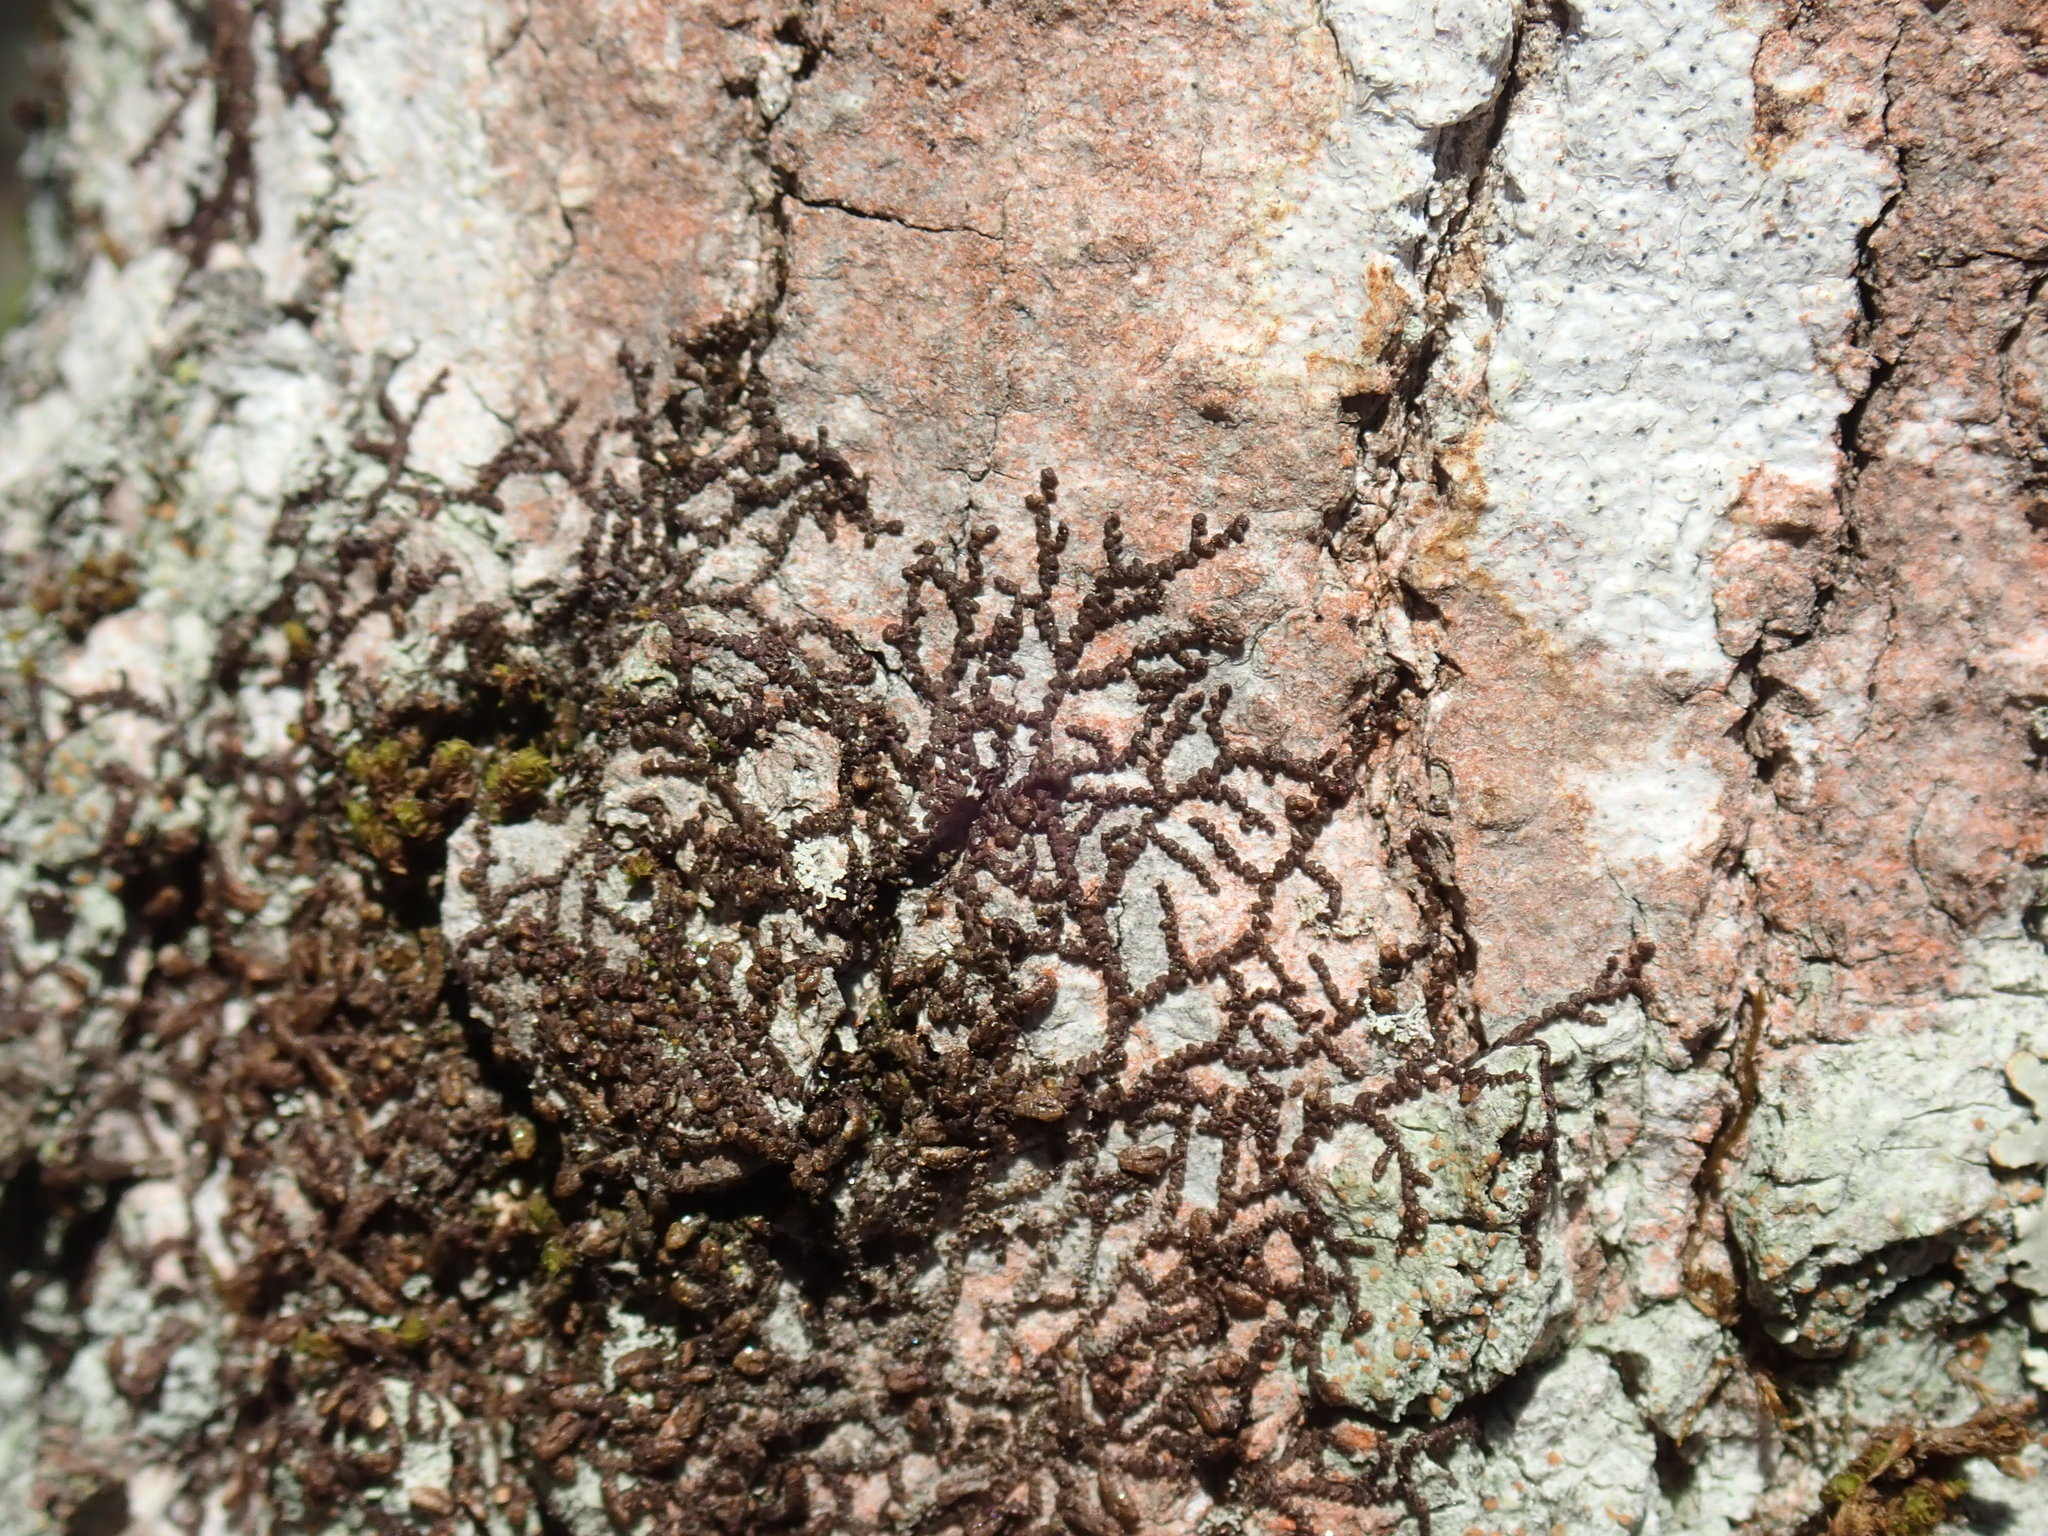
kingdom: Plantae
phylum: Marchantiophyta
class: Jungermanniopsida
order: Porellales
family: Frullaniaceae
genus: Frullania
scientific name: Frullania
